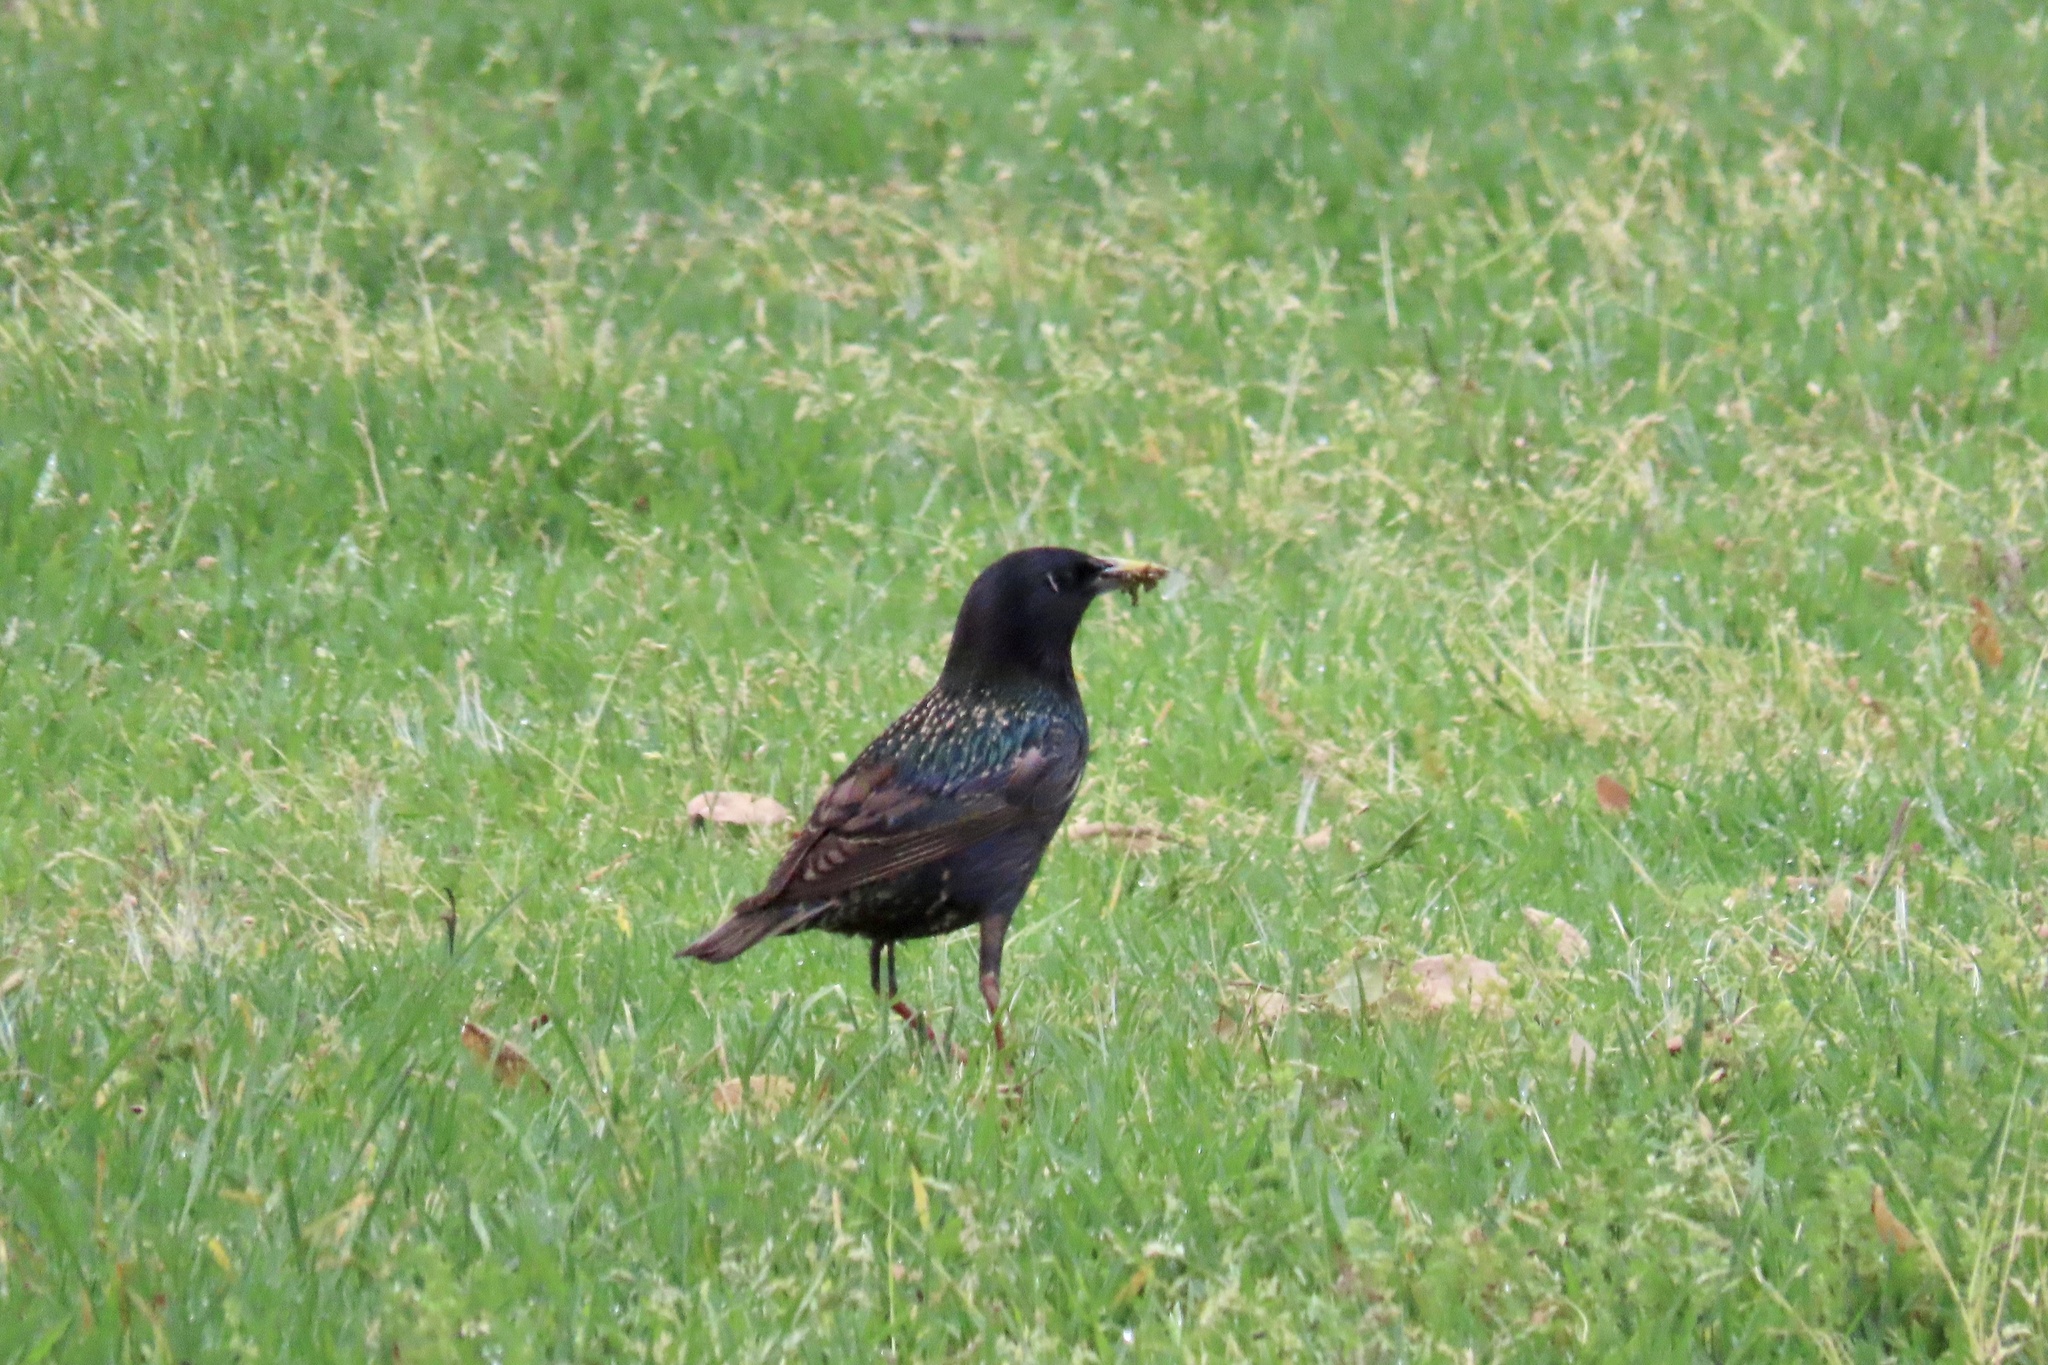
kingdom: Animalia
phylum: Chordata
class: Aves
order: Passeriformes
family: Sturnidae
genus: Sturnus
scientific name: Sturnus vulgaris
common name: Common starling
